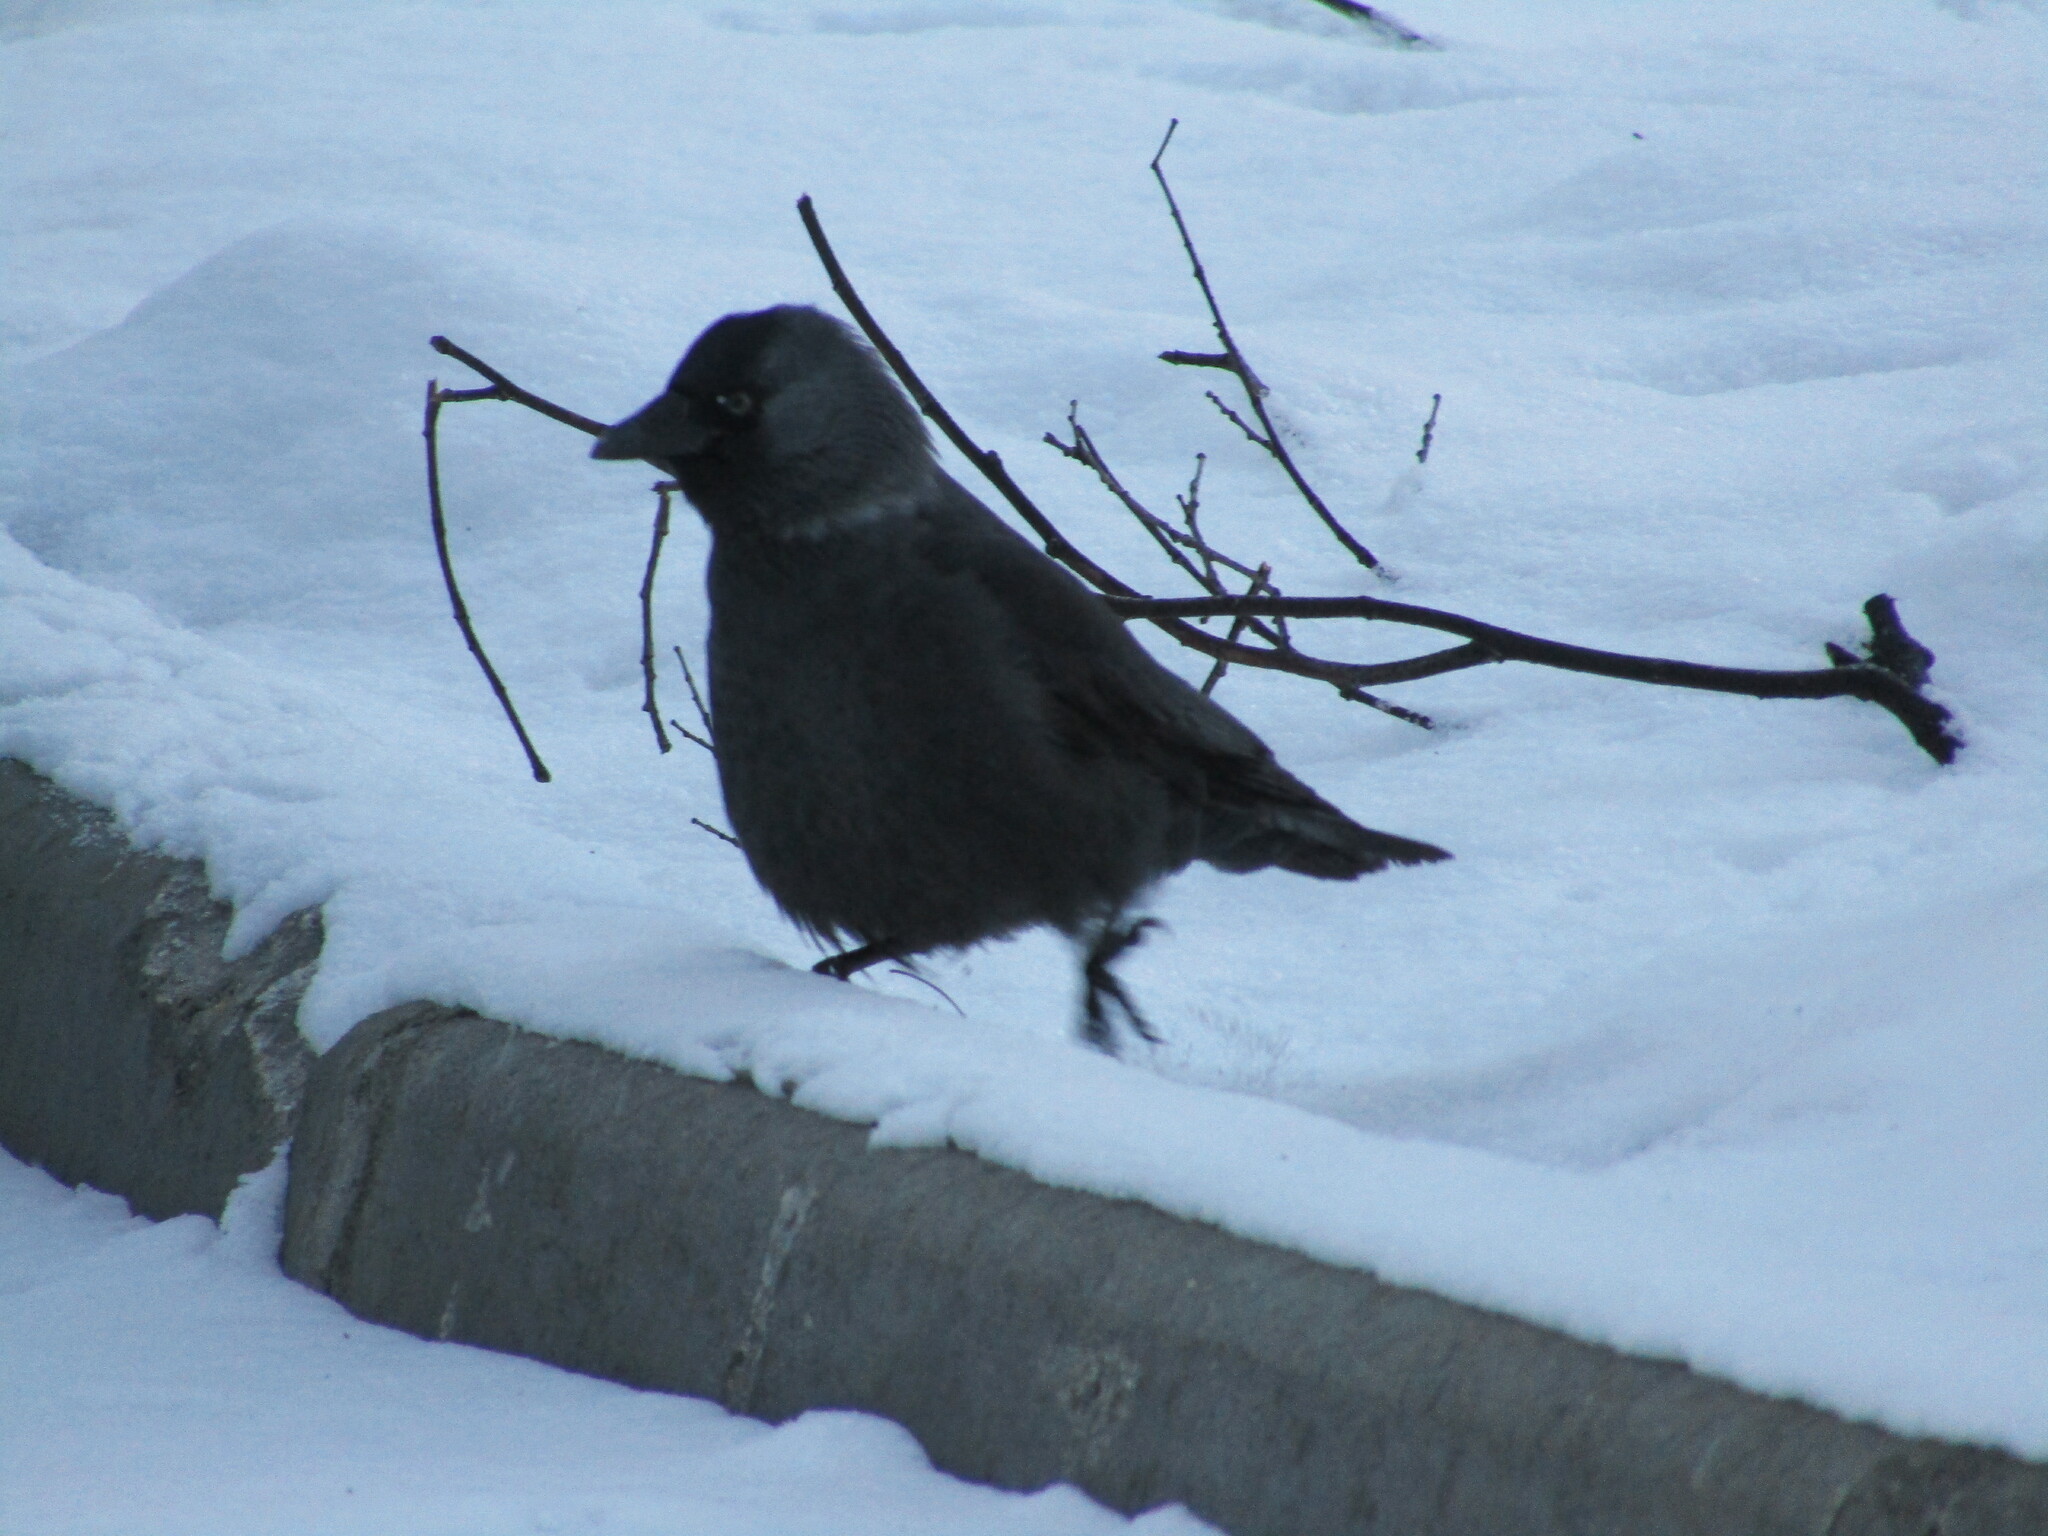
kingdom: Animalia
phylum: Chordata
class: Aves
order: Passeriformes
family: Corvidae
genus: Coloeus
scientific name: Coloeus monedula
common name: Western jackdaw
